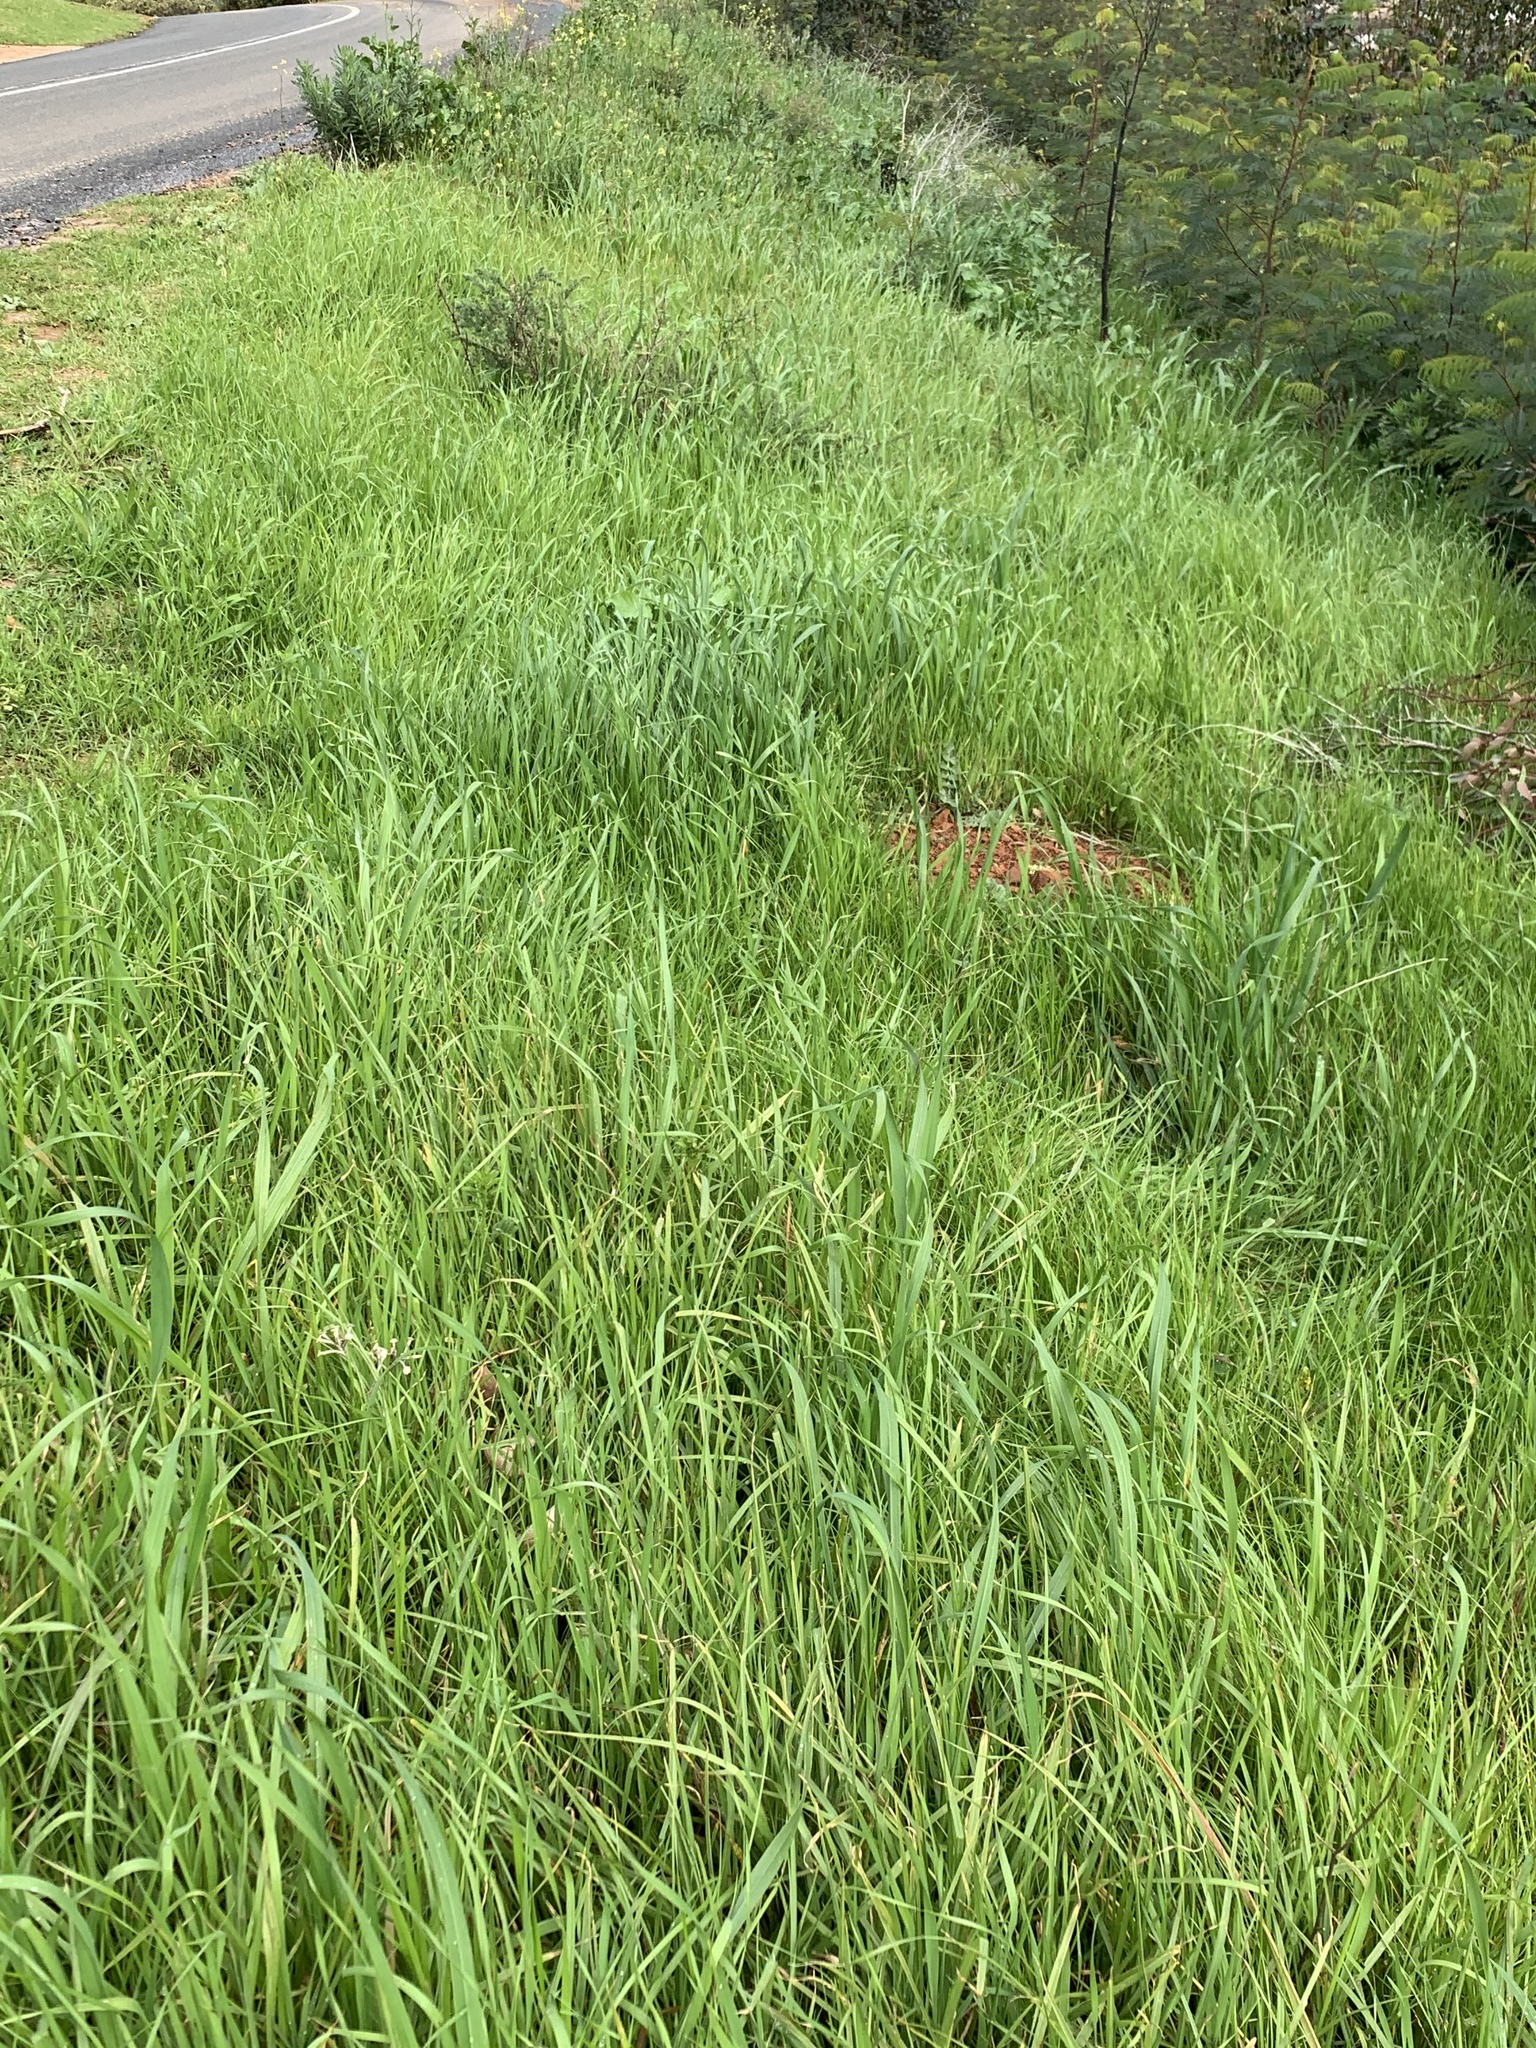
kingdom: Plantae
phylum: Tracheophyta
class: Liliopsida
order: Poales
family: Poaceae
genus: Cenchrus
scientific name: Cenchrus clandestinus
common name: Kikuyugrass
